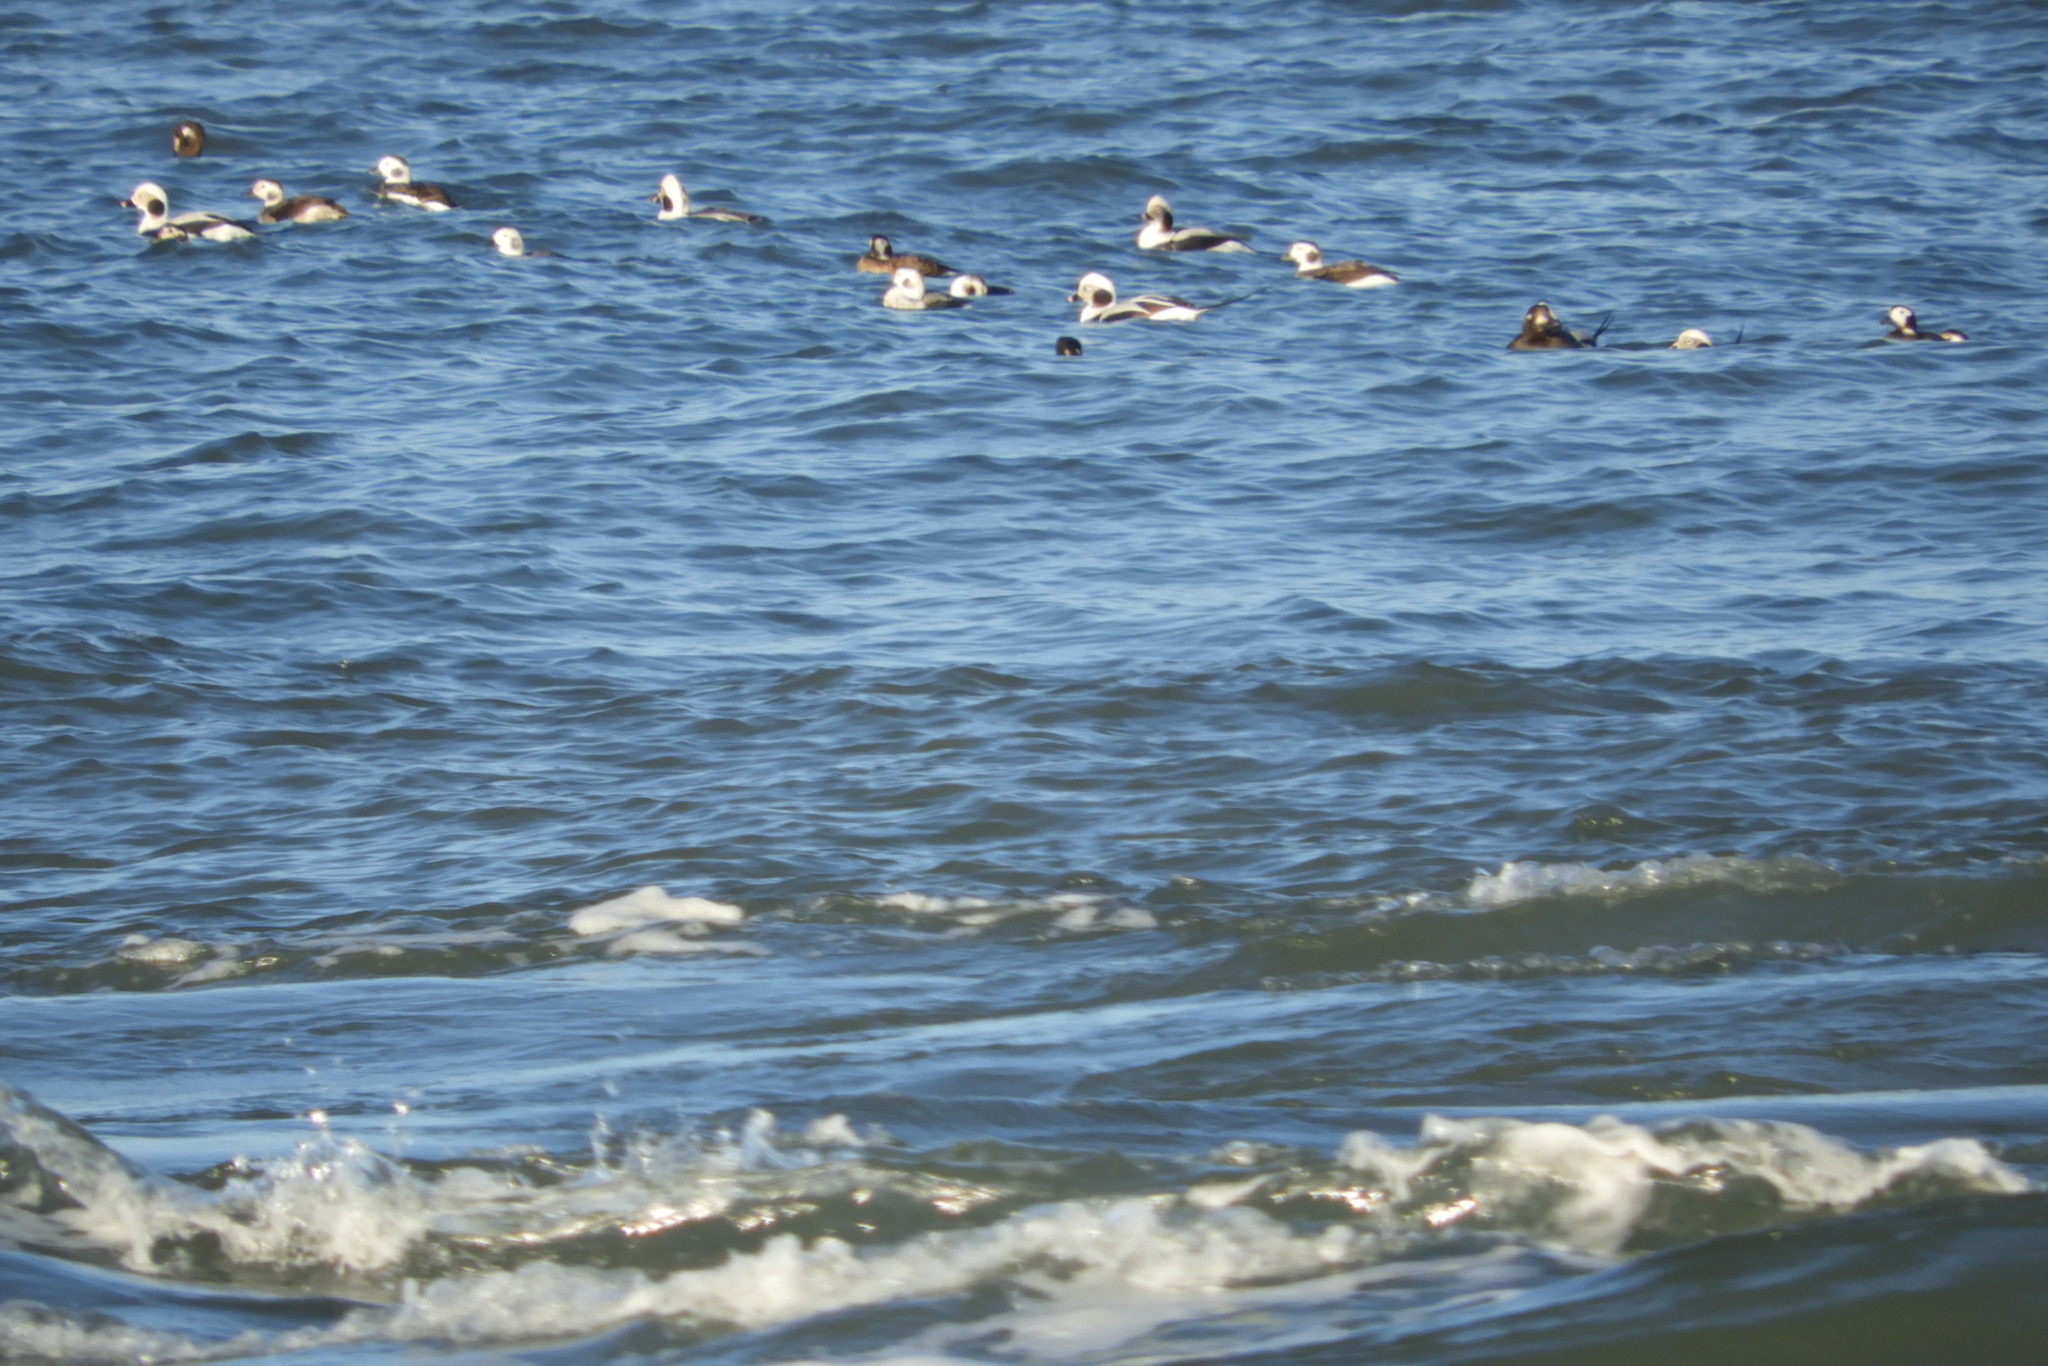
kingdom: Animalia
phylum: Chordata
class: Aves
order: Anseriformes
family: Anatidae
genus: Clangula
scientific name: Clangula hyemalis
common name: Long-tailed duck
